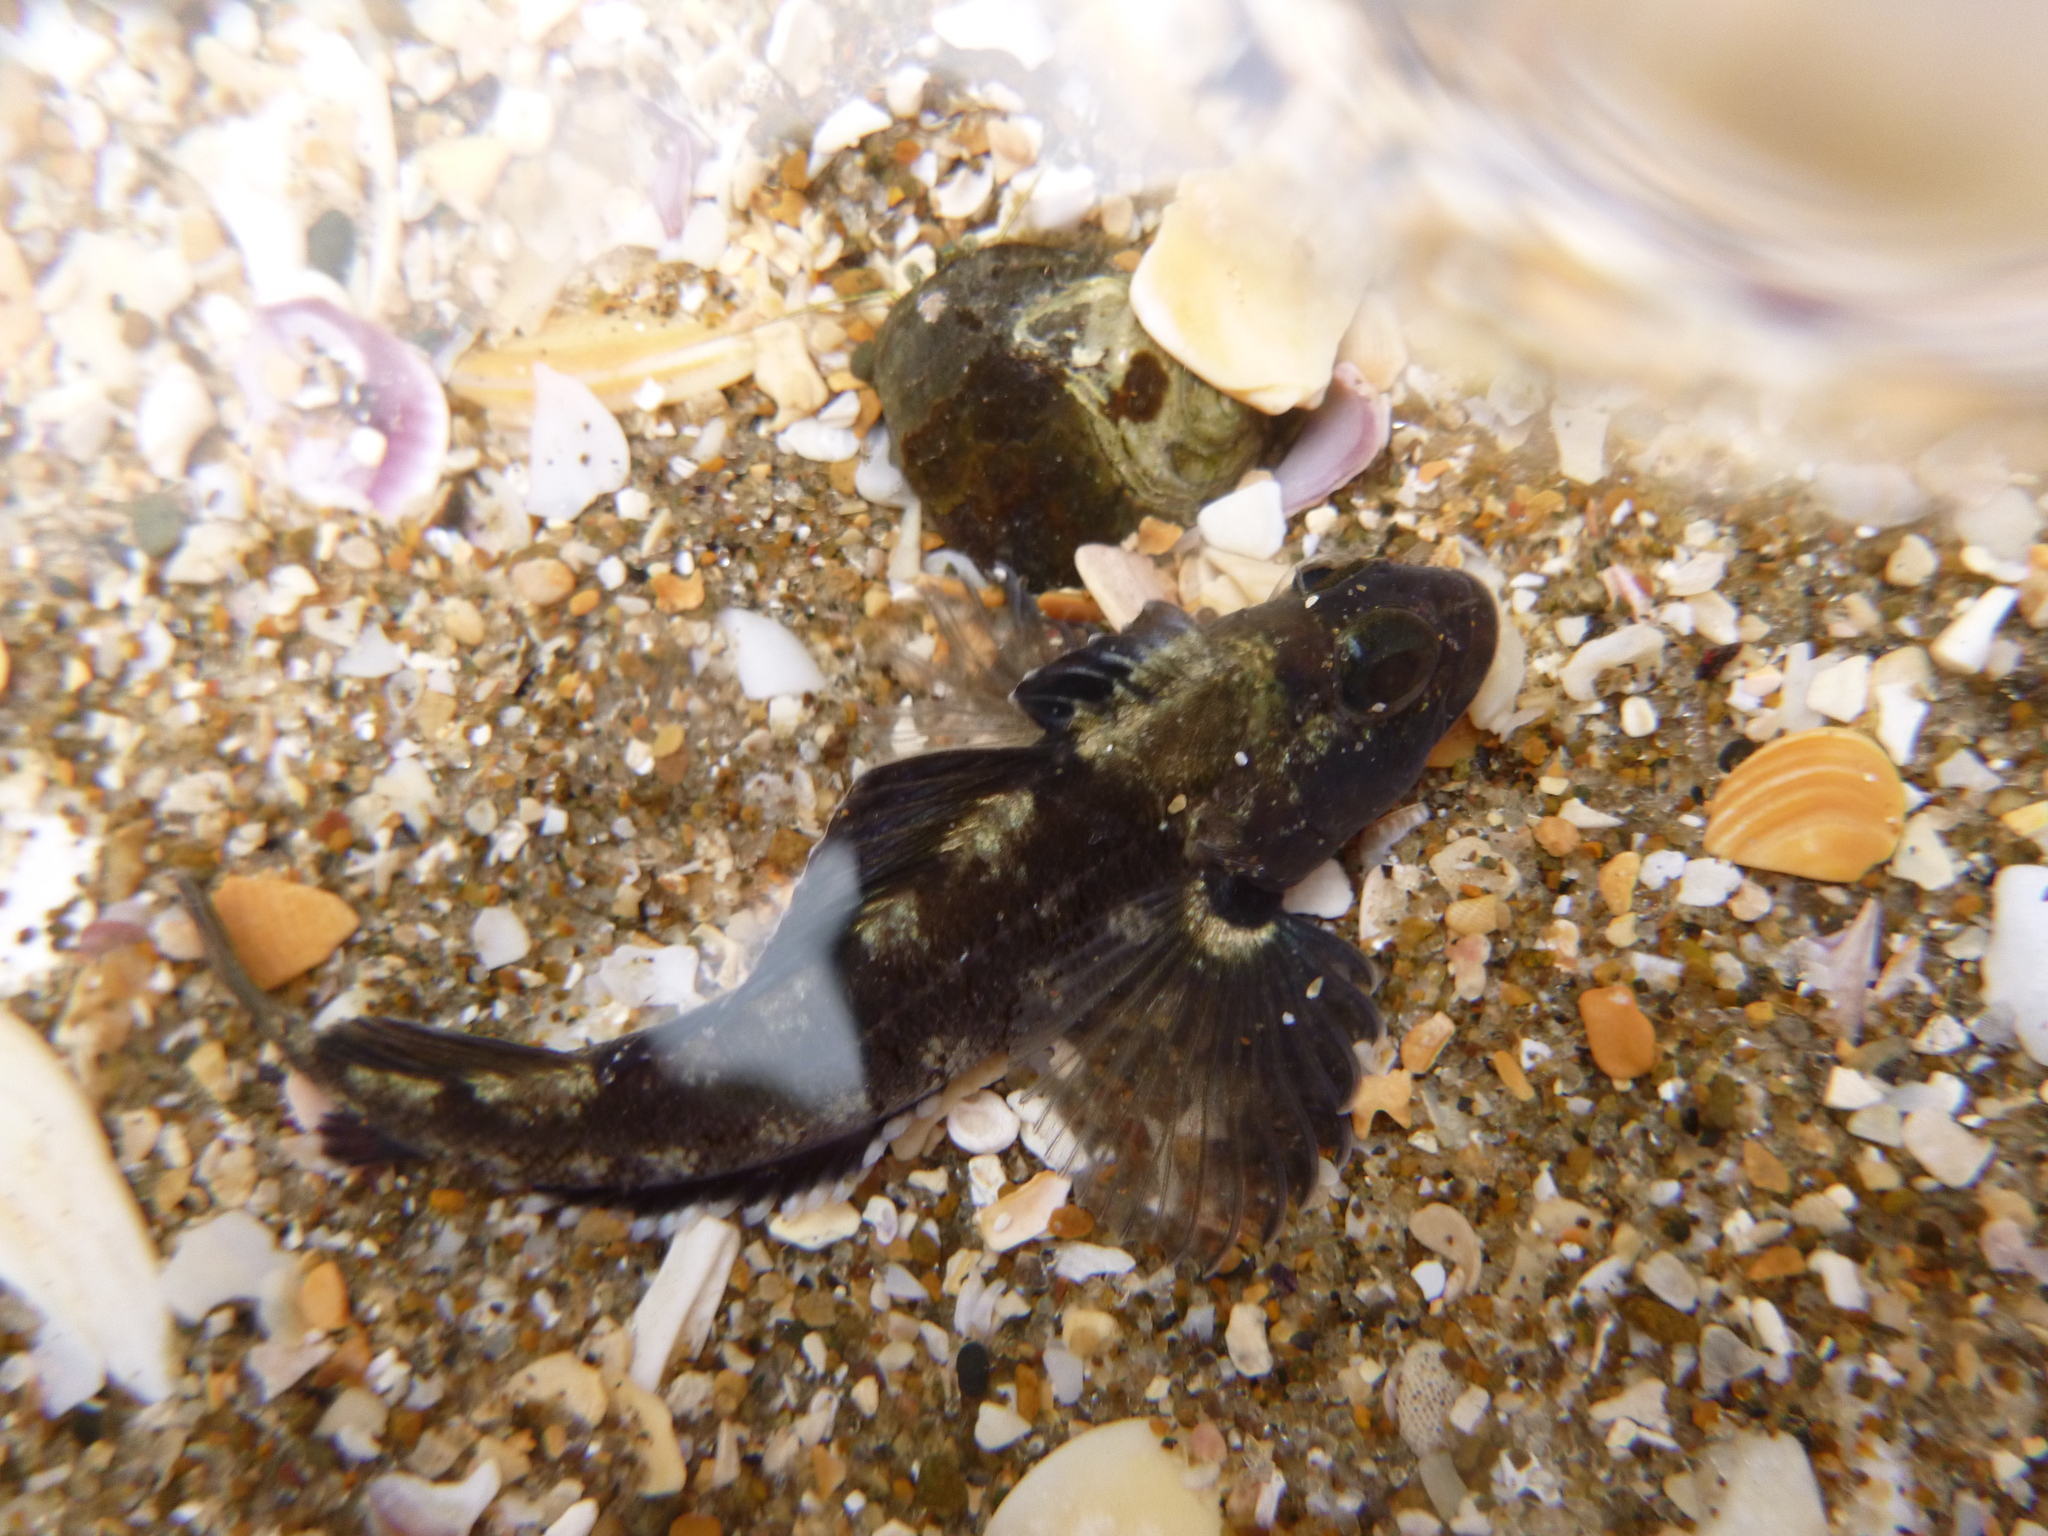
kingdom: Animalia
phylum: Chordata
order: Perciformes
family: Tripterygiidae
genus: Forsterygion
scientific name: Forsterygion capito
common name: Spotted robust triplefin
